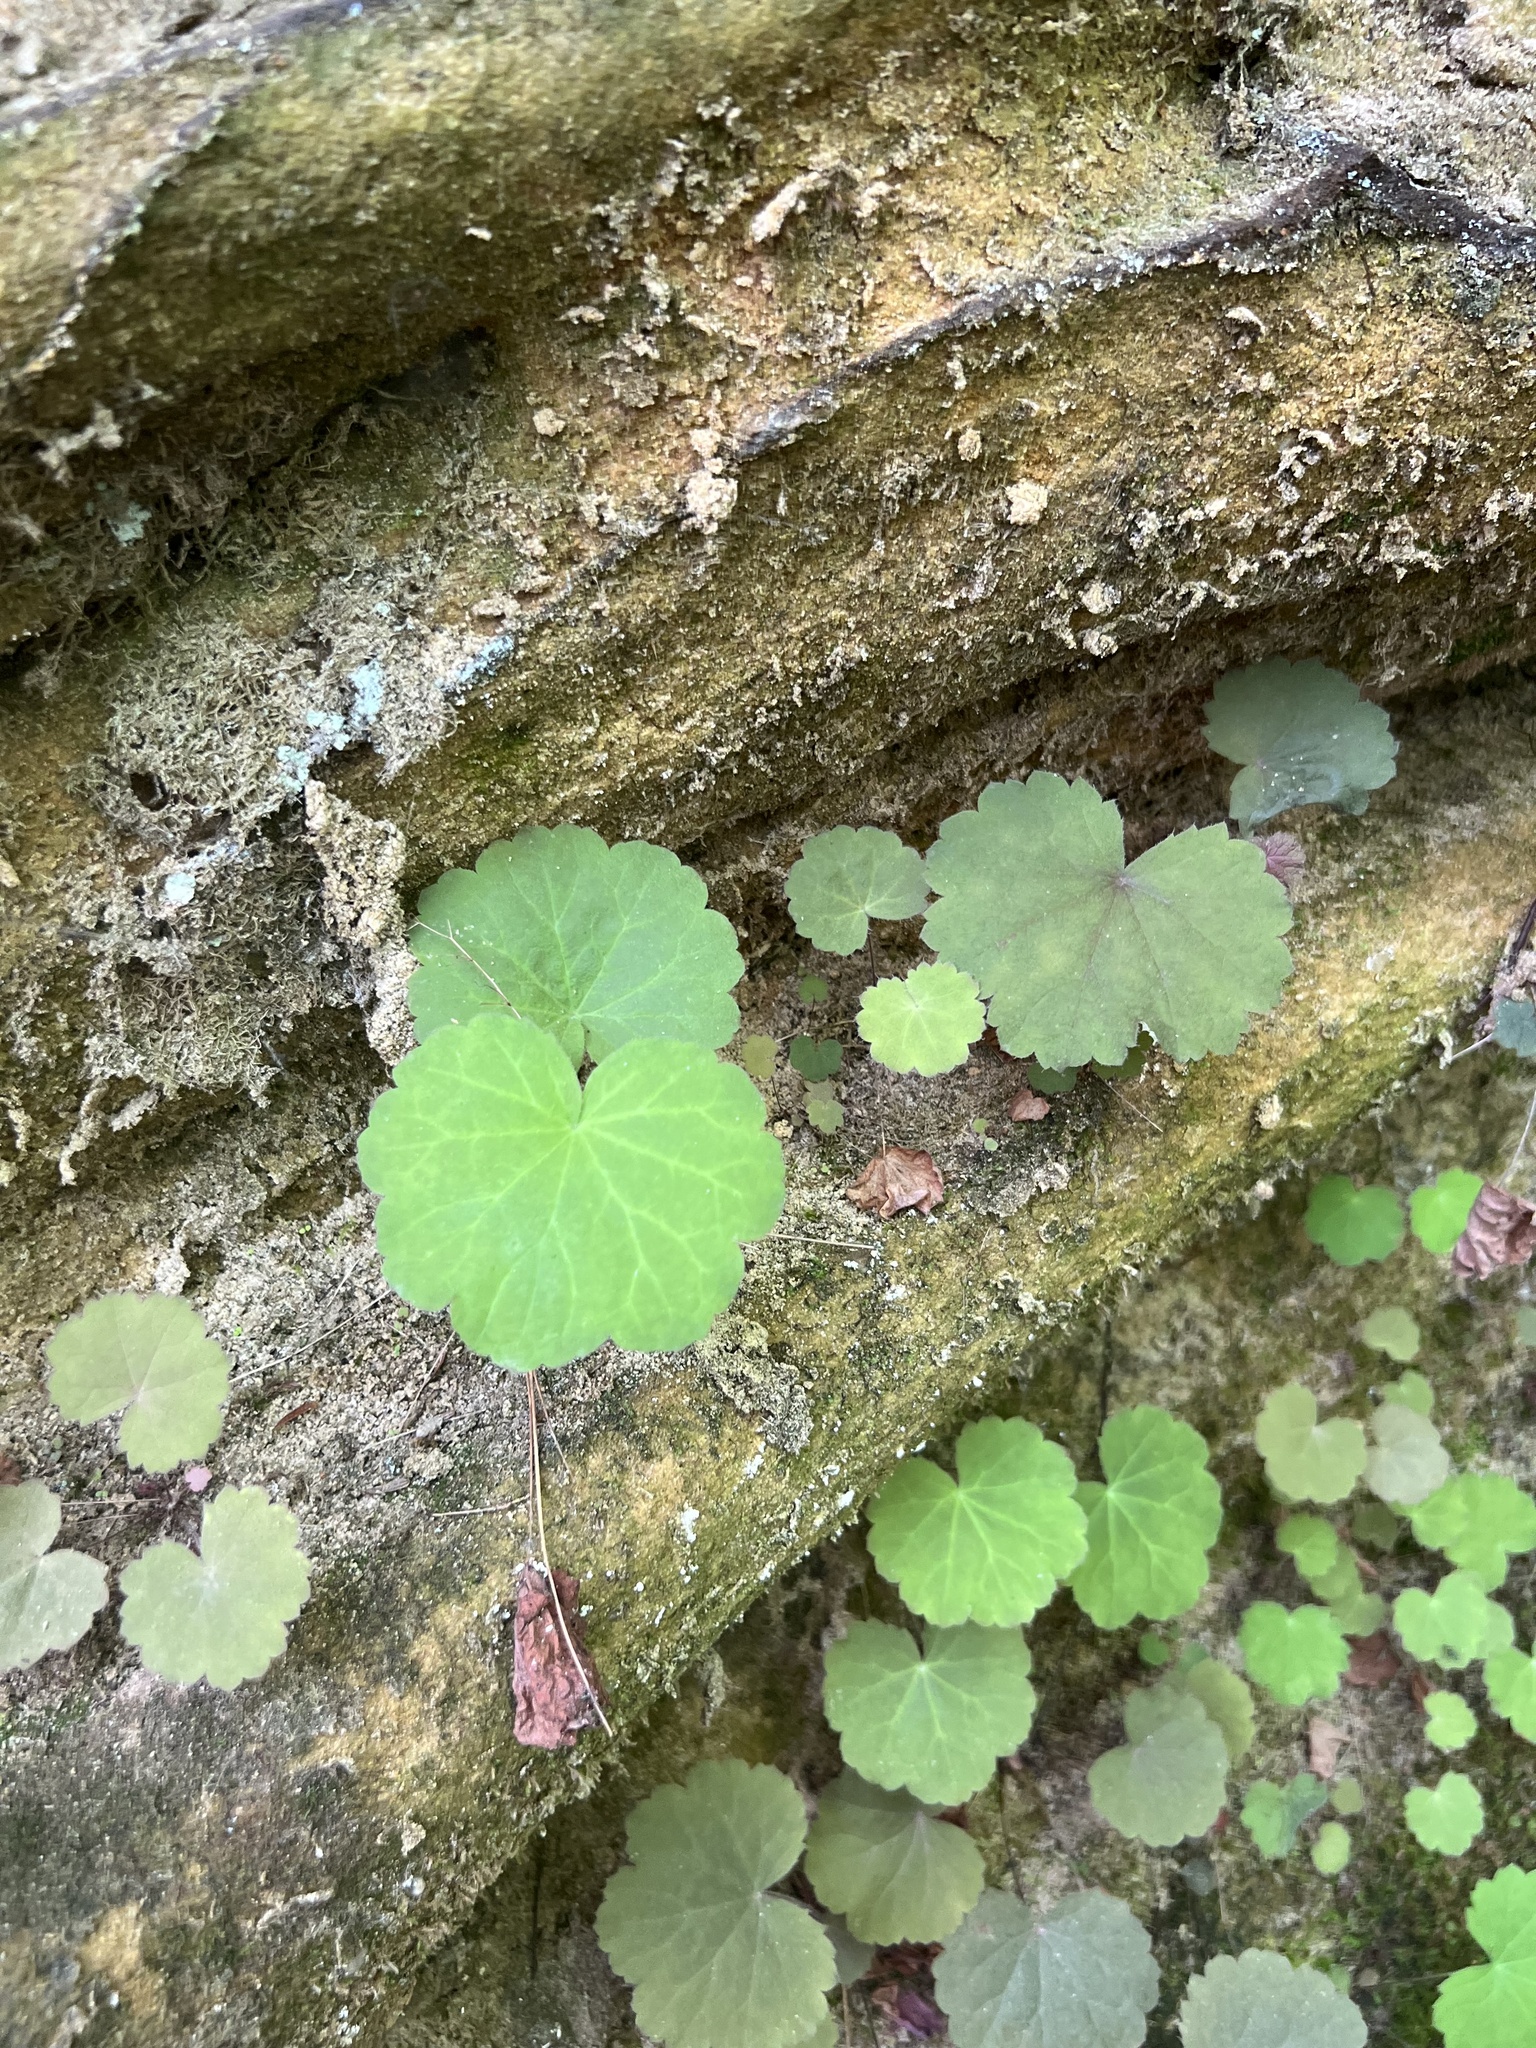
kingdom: Plantae
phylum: Tracheophyta
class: Magnoliopsida
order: Saxifragales
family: Saxifragaceae
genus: Heuchera
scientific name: Heuchera parviflora
